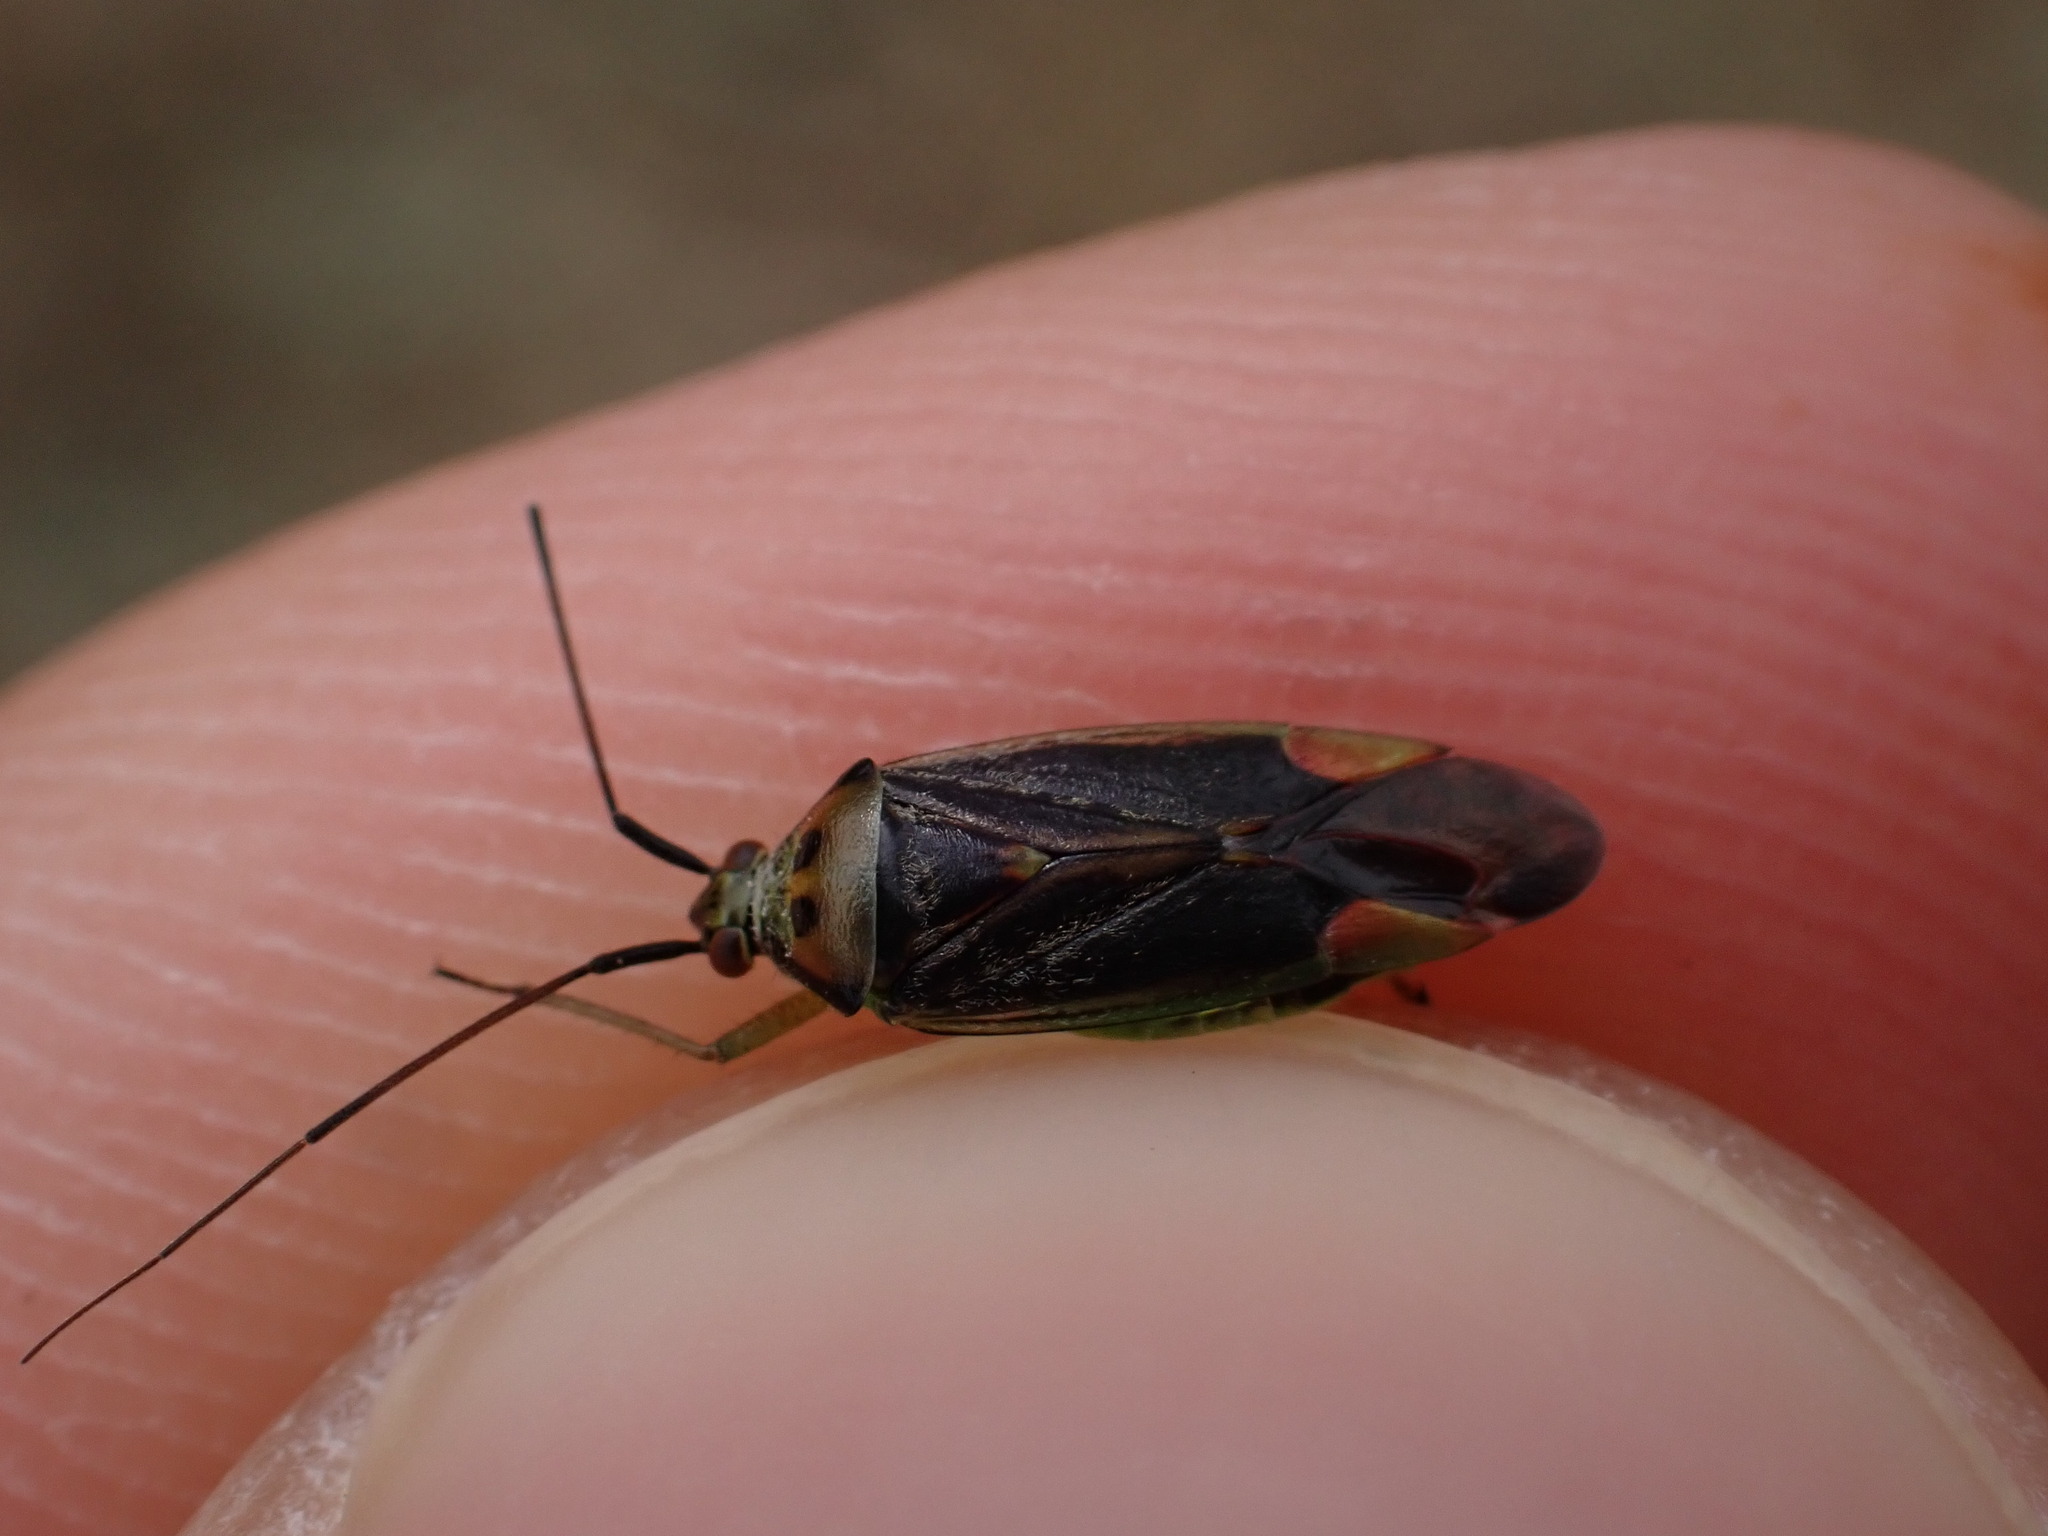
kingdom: Animalia
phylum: Arthropoda
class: Insecta
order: Hemiptera
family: Miridae
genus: Closterotomus
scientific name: Closterotomus trivialis
